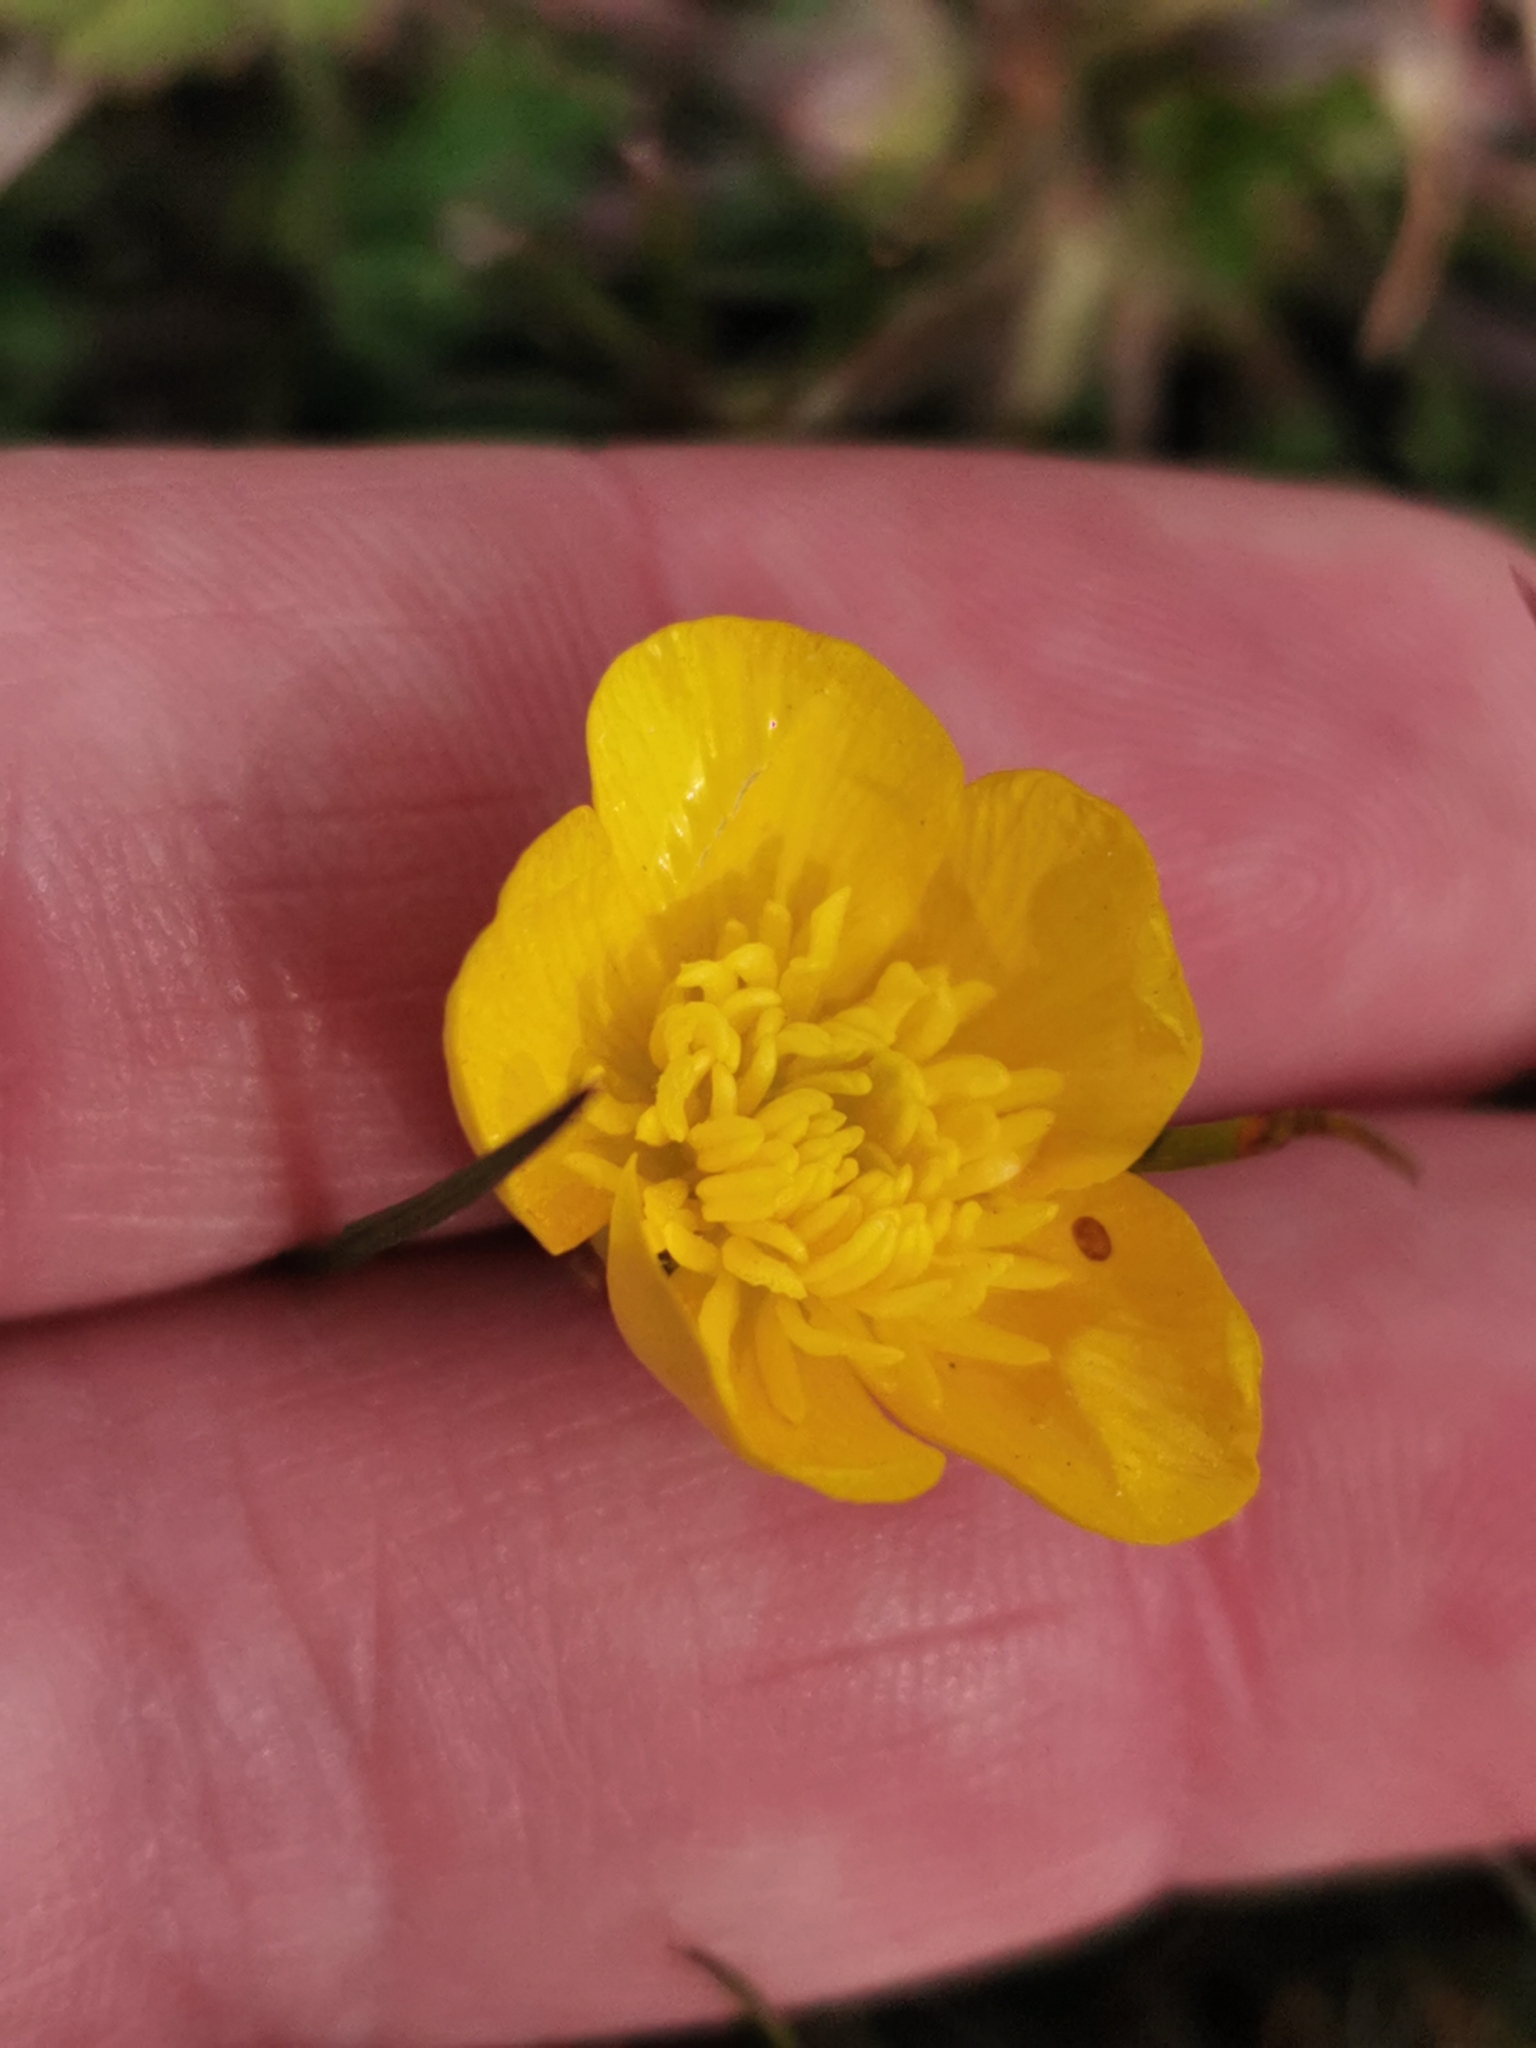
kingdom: Plantae
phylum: Tracheophyta
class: Magnoliopsida
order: Ranunculales
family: Ranunculaceae
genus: Ranunculus
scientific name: Ranunculus bulbosus
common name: Bulbous buttercup
